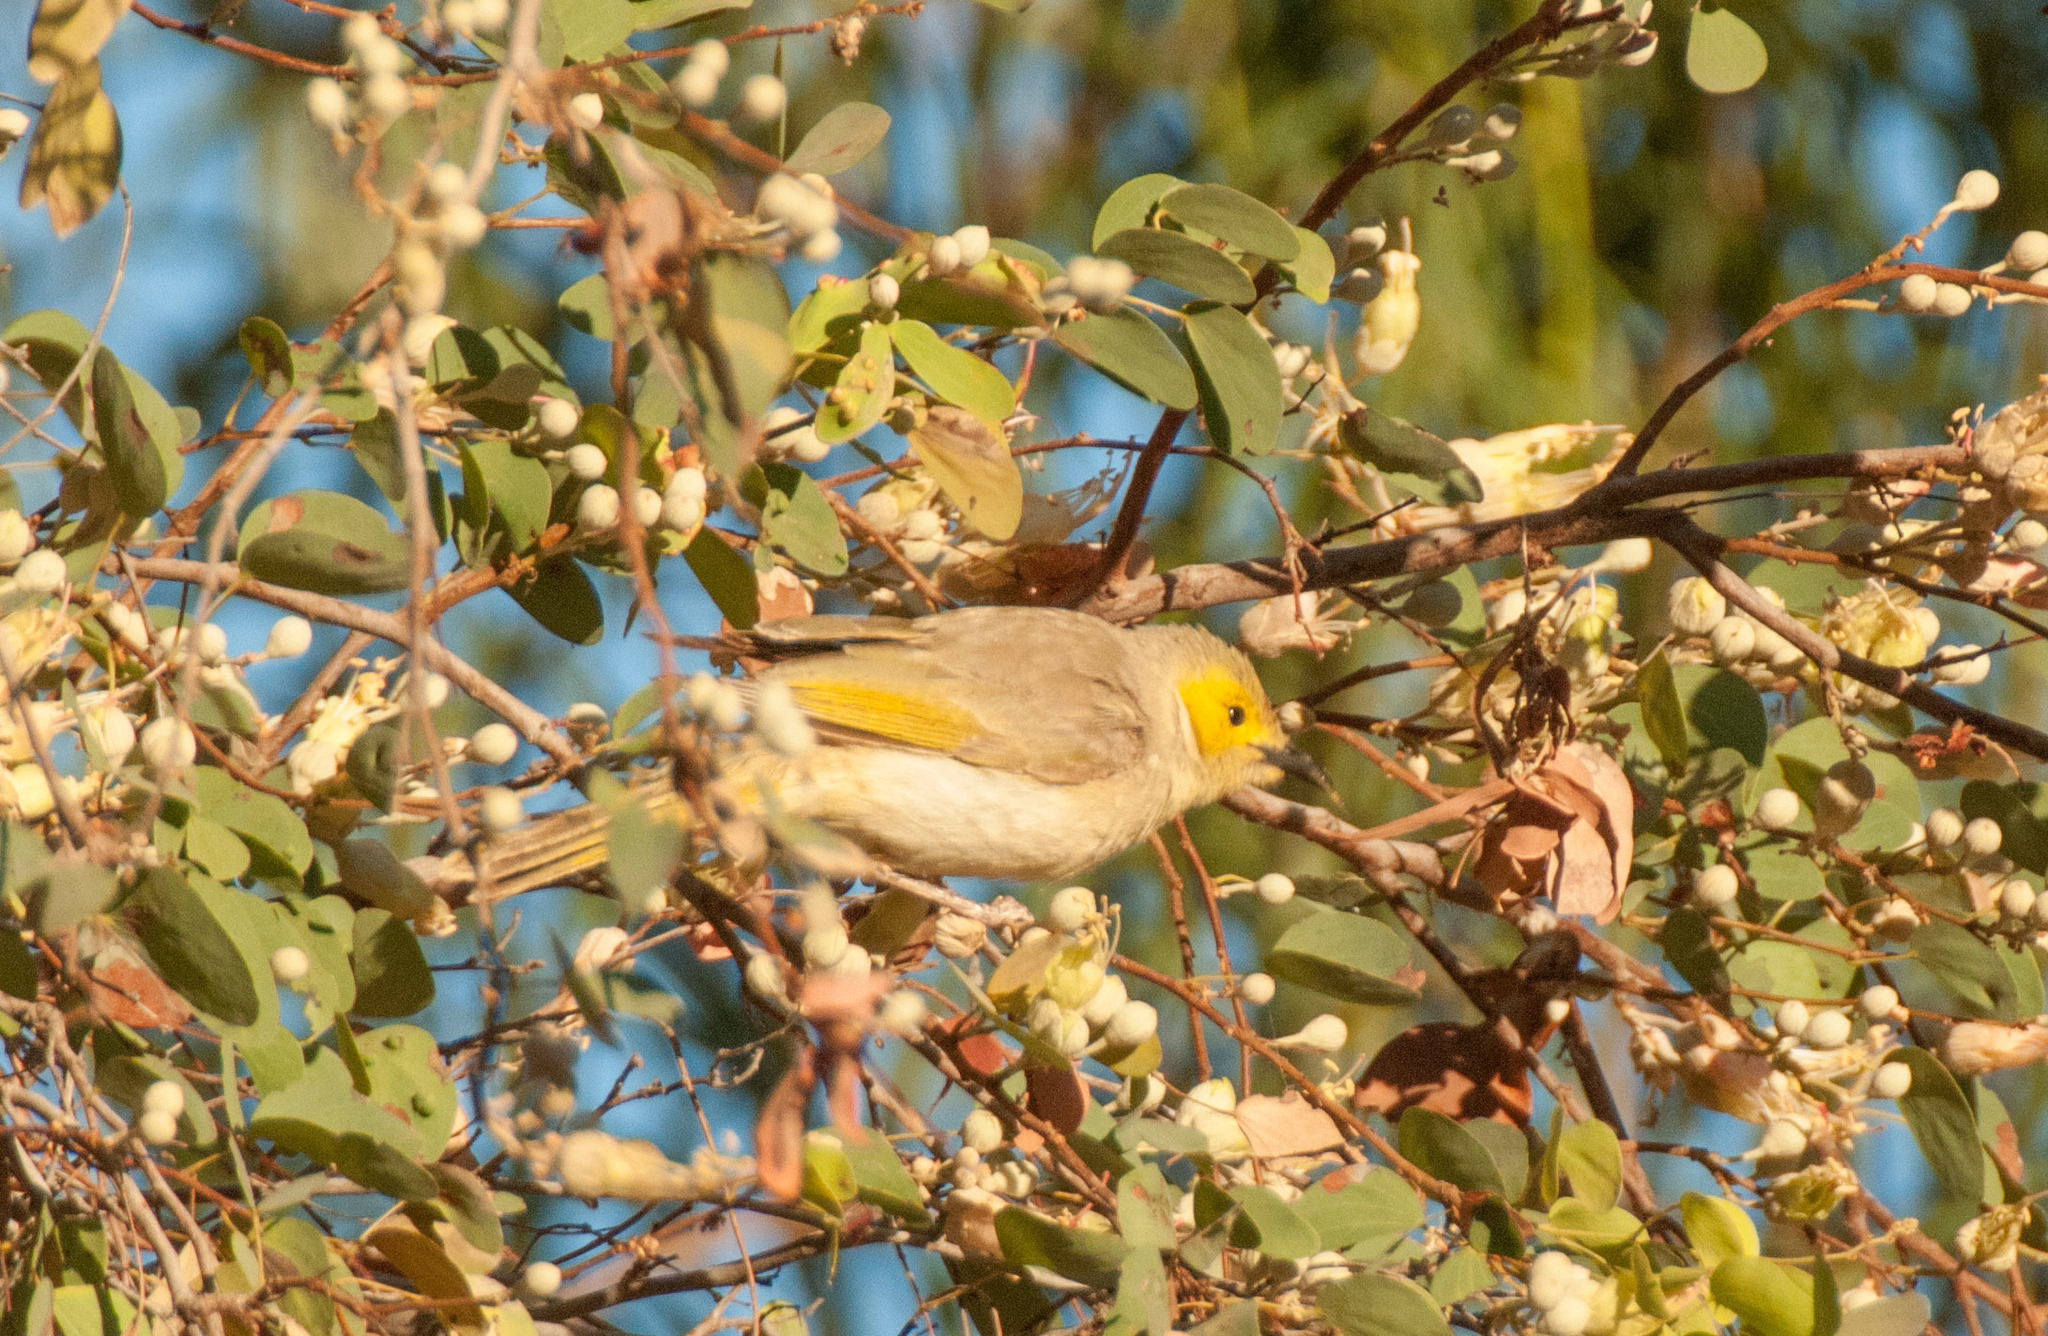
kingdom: Animalia
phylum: Chordata
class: Aves
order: Passeriformes
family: Meliphagidae
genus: Ptilotula
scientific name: Ptilotula penicillata
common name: White-plumed honeyeater
